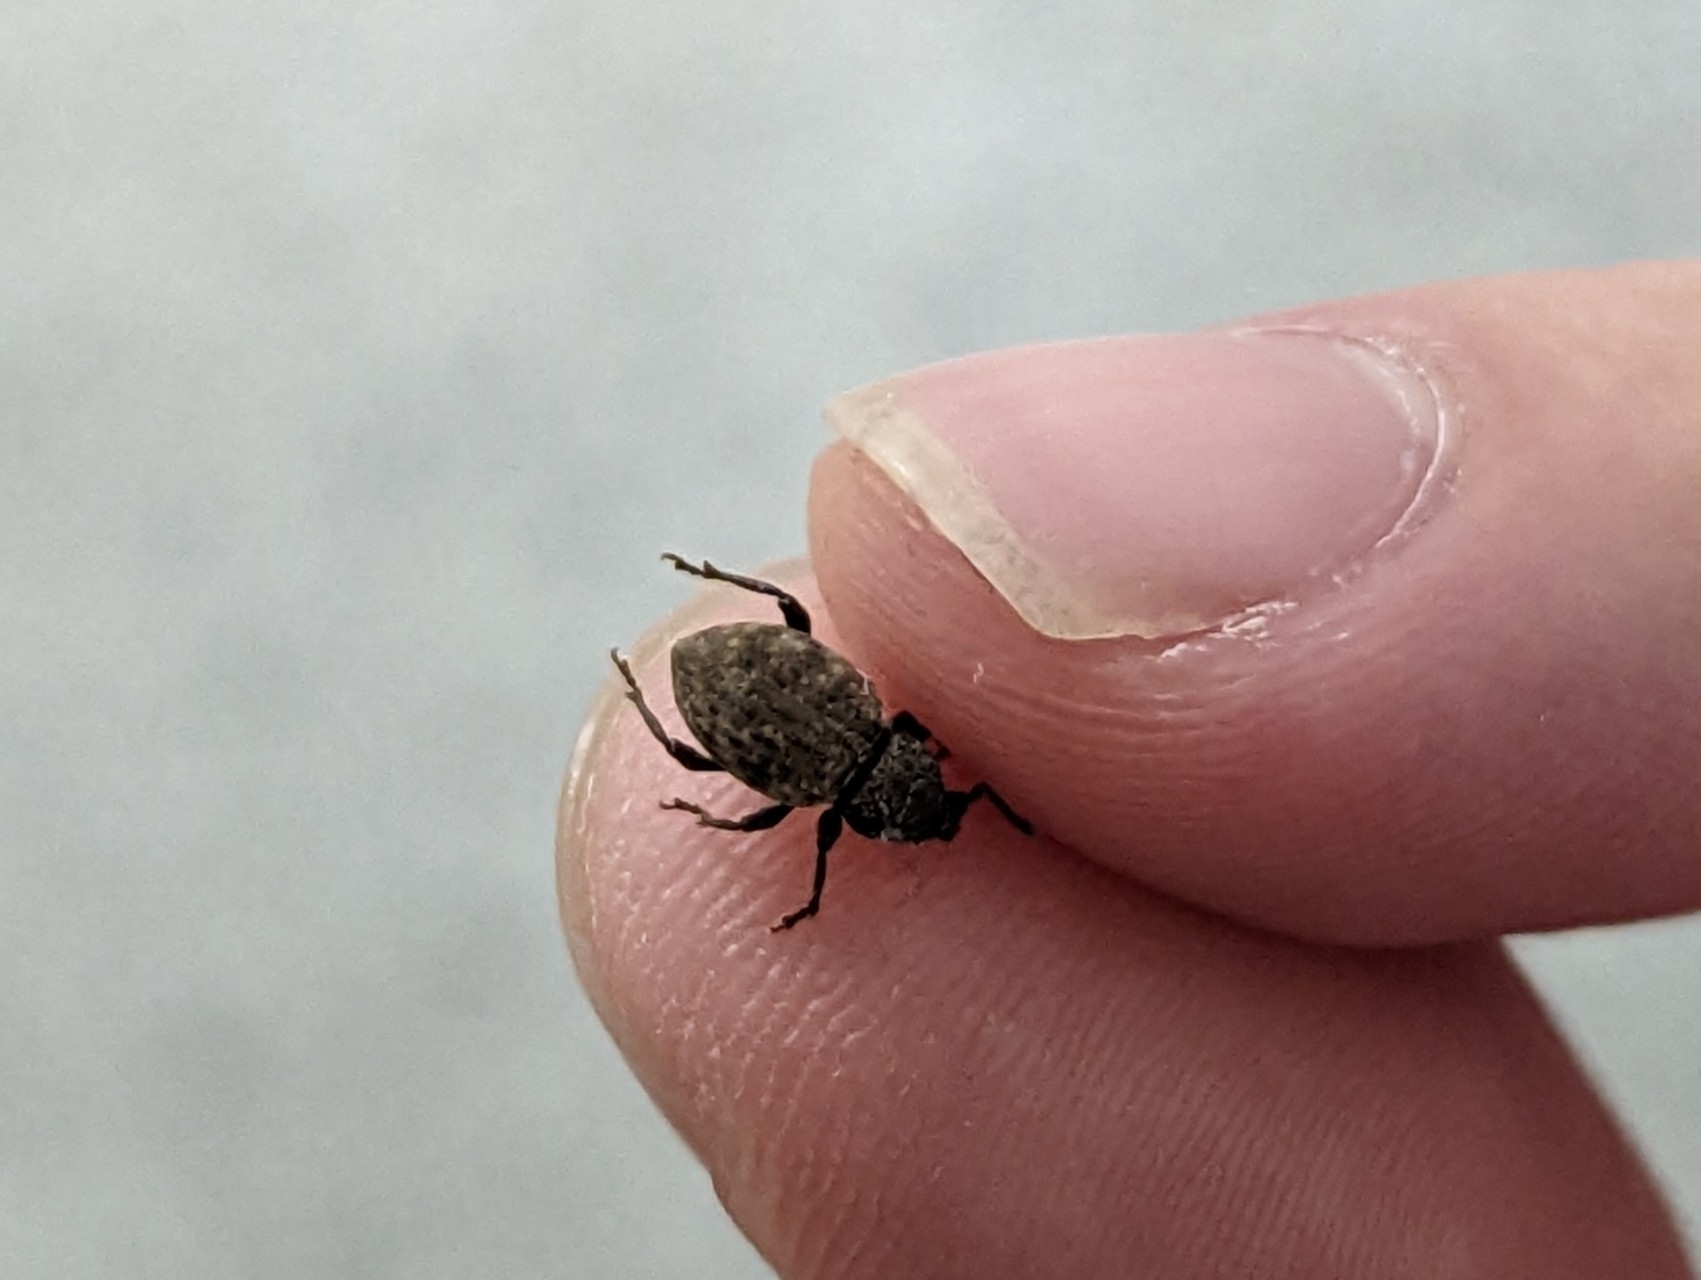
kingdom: Animalia
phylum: Arthropoda
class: Insecta
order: Coleoptera
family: Curculionidae
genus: Otiorhynchus
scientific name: Otiorhynchus raucus
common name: Weevil
